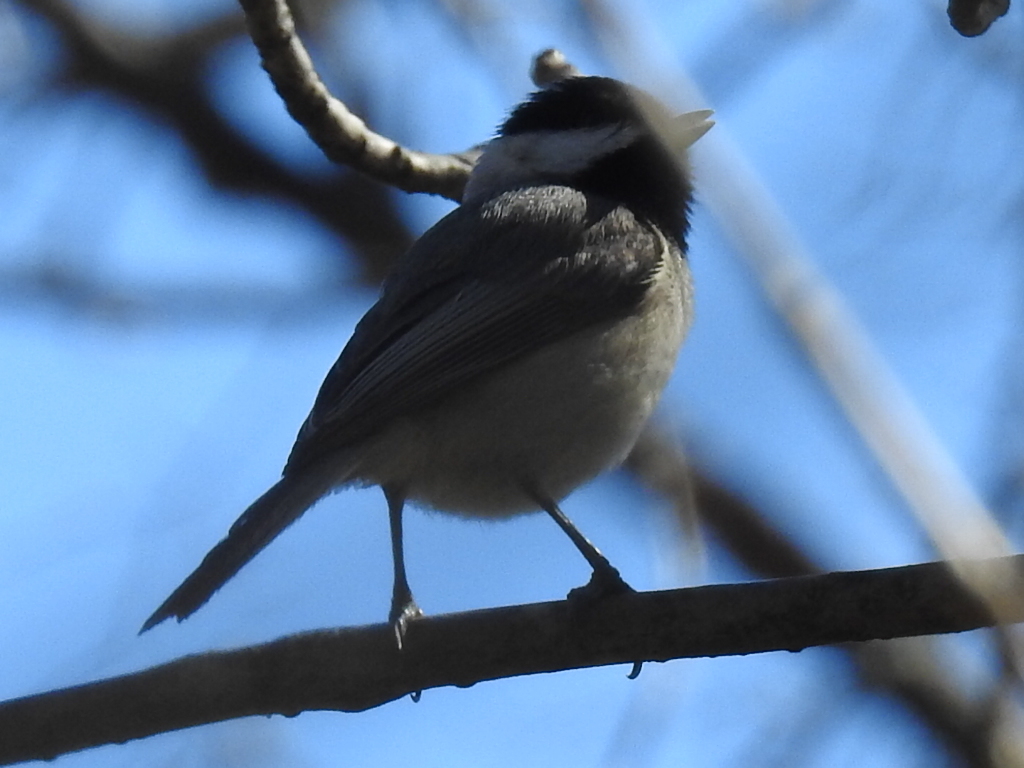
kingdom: Animalia
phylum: Chordata
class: Aves
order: Passeriformes
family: Paridae
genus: Poecile
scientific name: Poecile carolinensis
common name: Carolina chickadee
